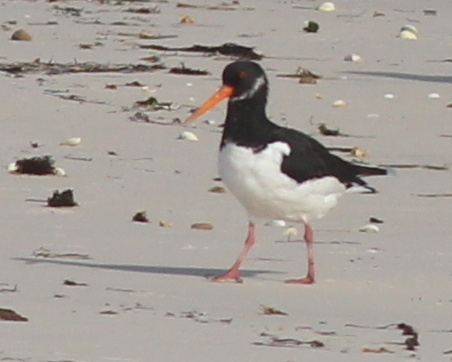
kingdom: Animalia
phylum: Chordata
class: Aves
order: Charadriiformes
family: Haematopodidae
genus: Haematopus
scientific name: Haematopus ostralegus
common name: Eurasian oystercatcher
